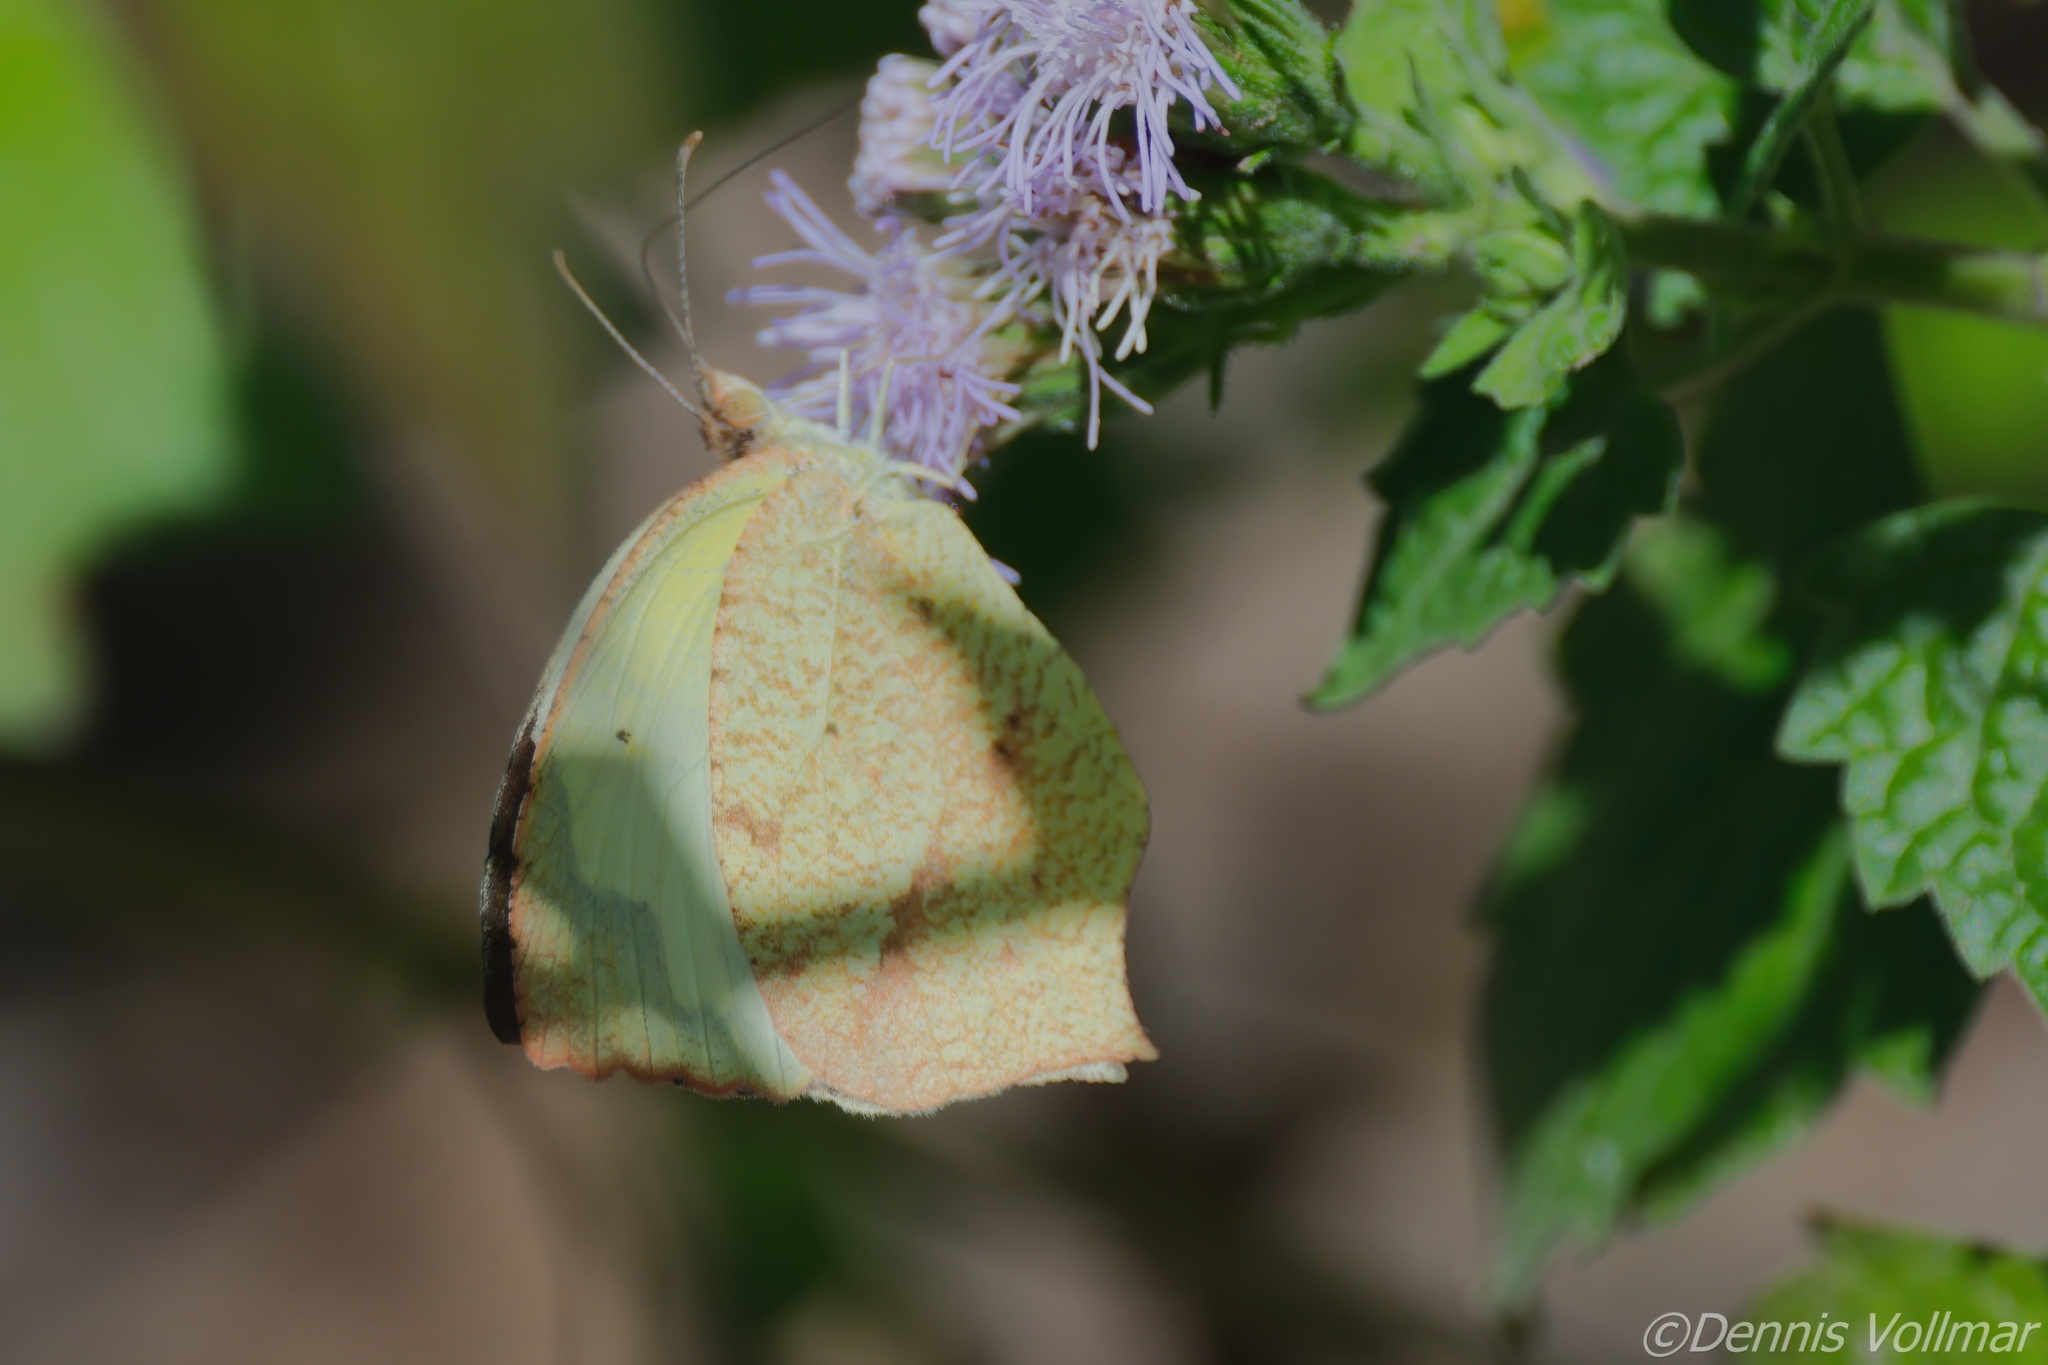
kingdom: Animalia
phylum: Arthropoda
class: Insecta
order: Lepidoptera
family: Pieridae
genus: Abaeis
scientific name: Abaeis mexicana
